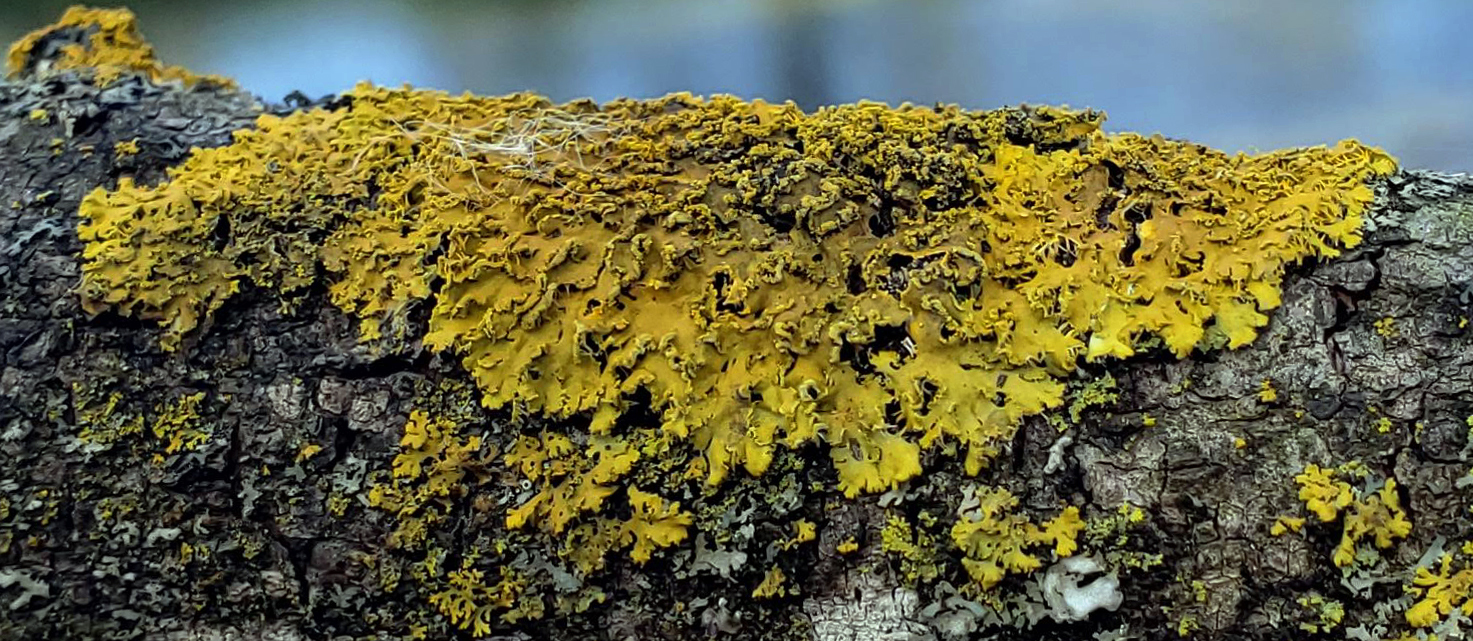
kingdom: Fungi
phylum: Ascomycota
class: Lecanoromycetes
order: Teloschistales
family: Teloschistaceae
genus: Xanthoria
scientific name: Xanthoria ulophyllodes
